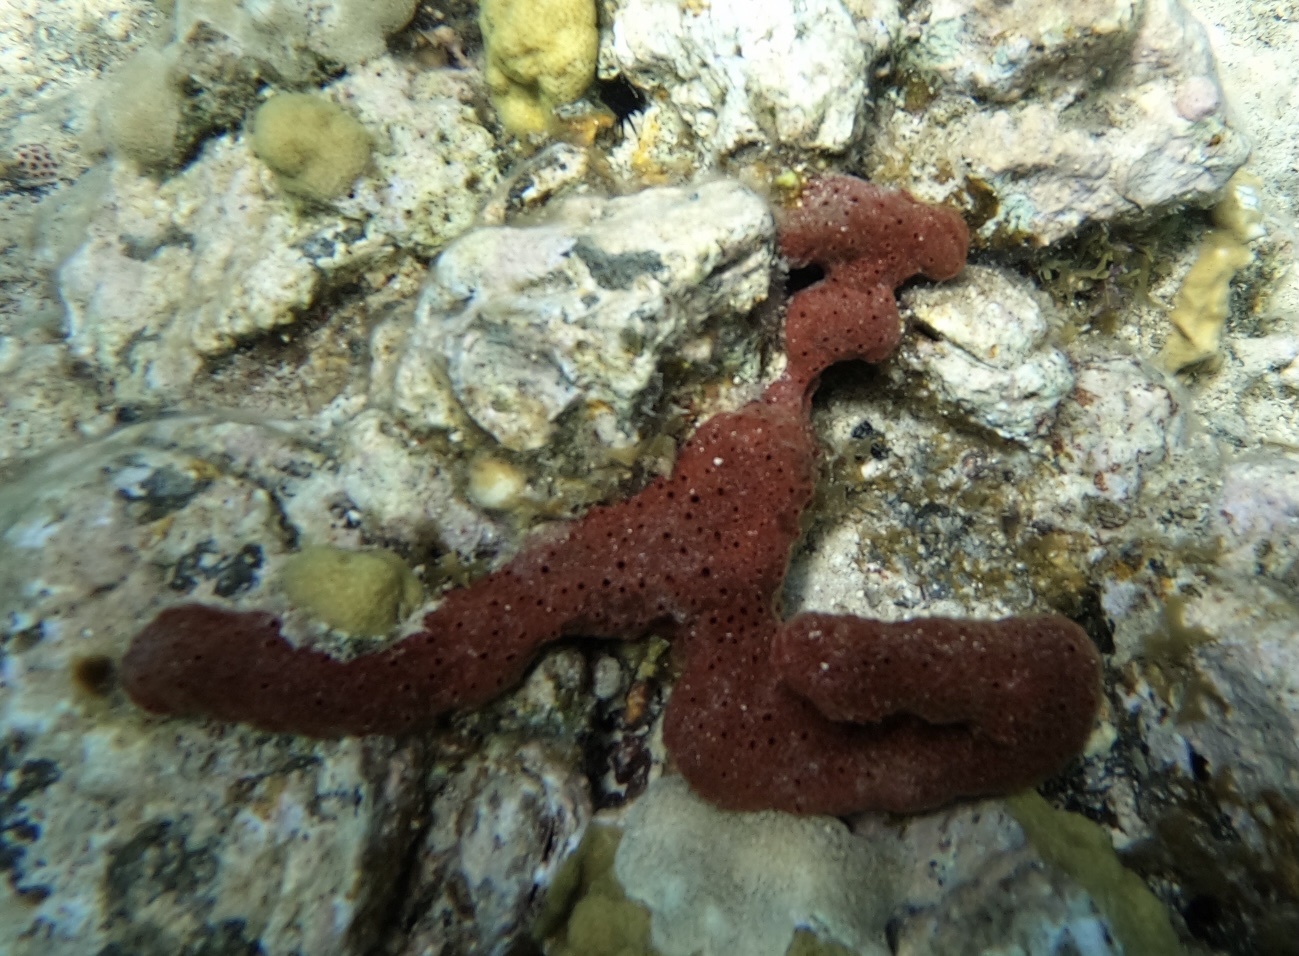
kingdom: Animalia
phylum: Porifera
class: Demospongiae
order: Haplosclerida
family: Niphatidae
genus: Amphimedon
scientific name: Amphimedon compressa
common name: Red sponge
